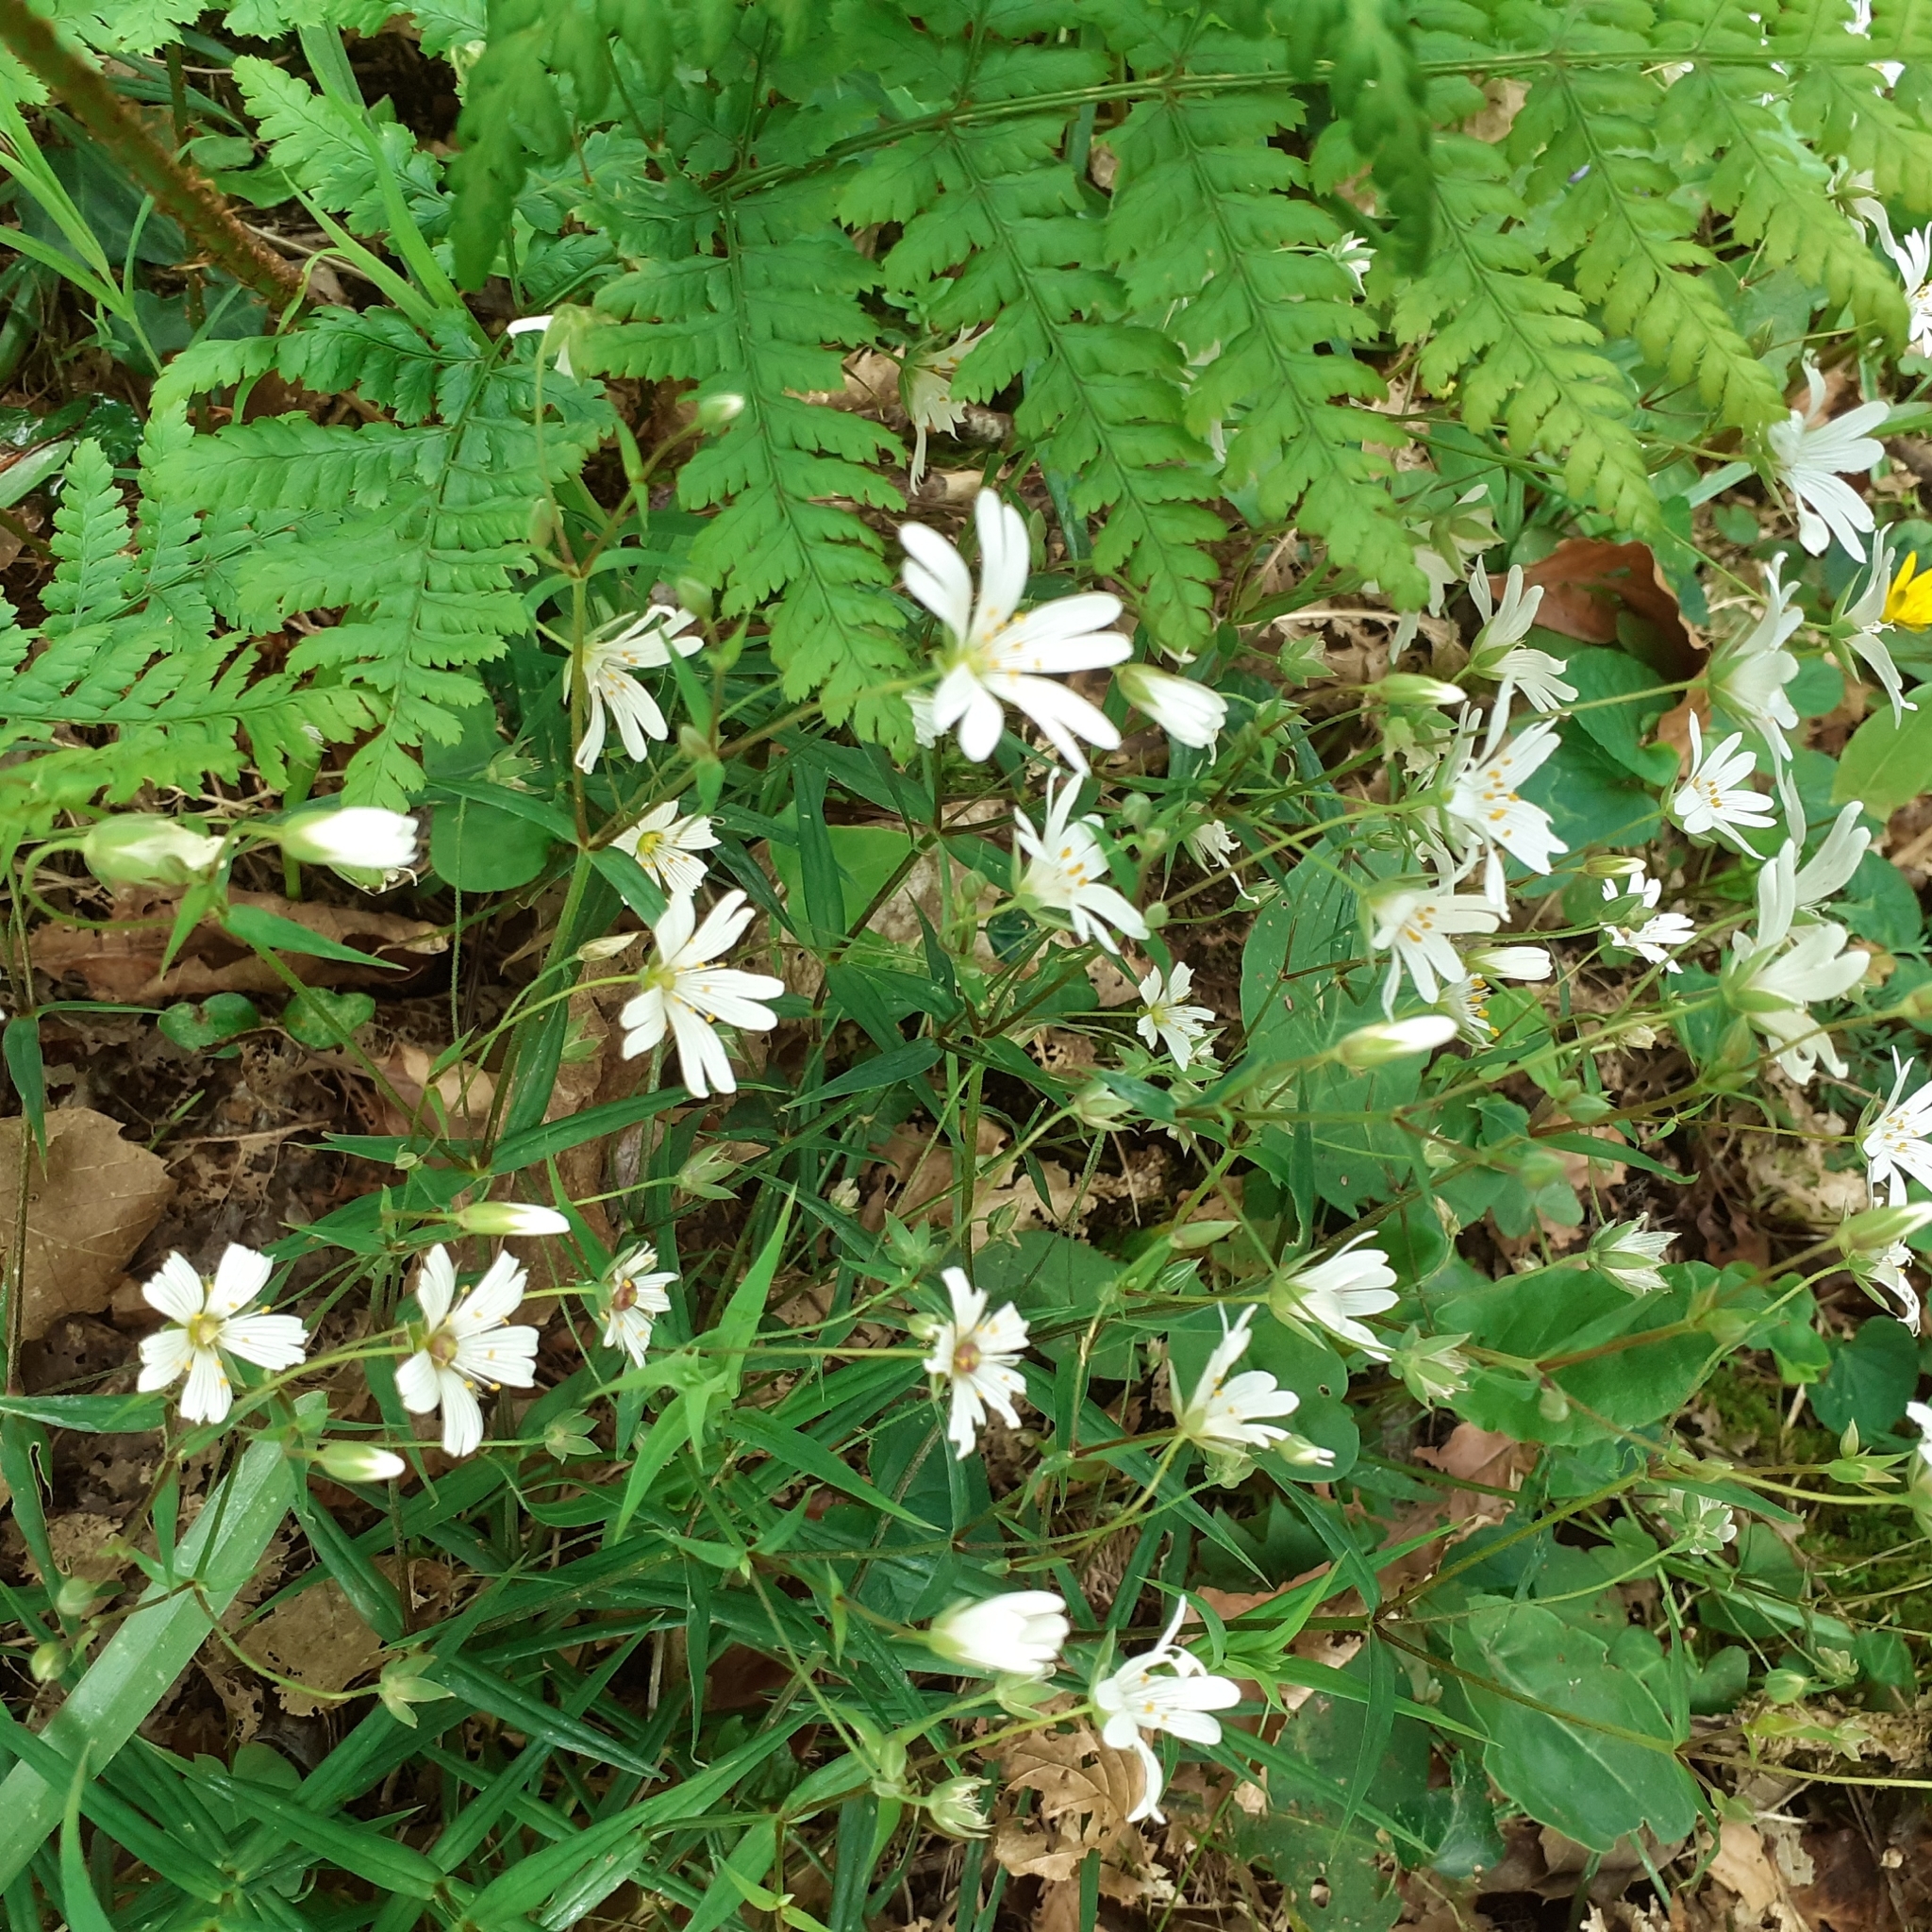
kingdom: Plantae
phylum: Tracheophyta
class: Magnoliopsida
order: Caryophyllales
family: Caryophyllaceae
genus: Rabelera
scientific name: Rabelera holostea
